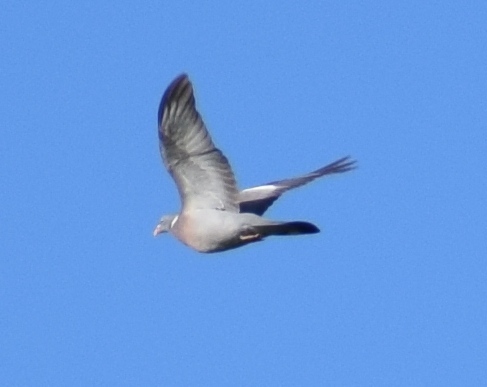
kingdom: Animalia
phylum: Chordata
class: Aves
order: Columbiformes
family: Columbidae
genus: Columba
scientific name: Columba palumbus
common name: Common wood pigeon
